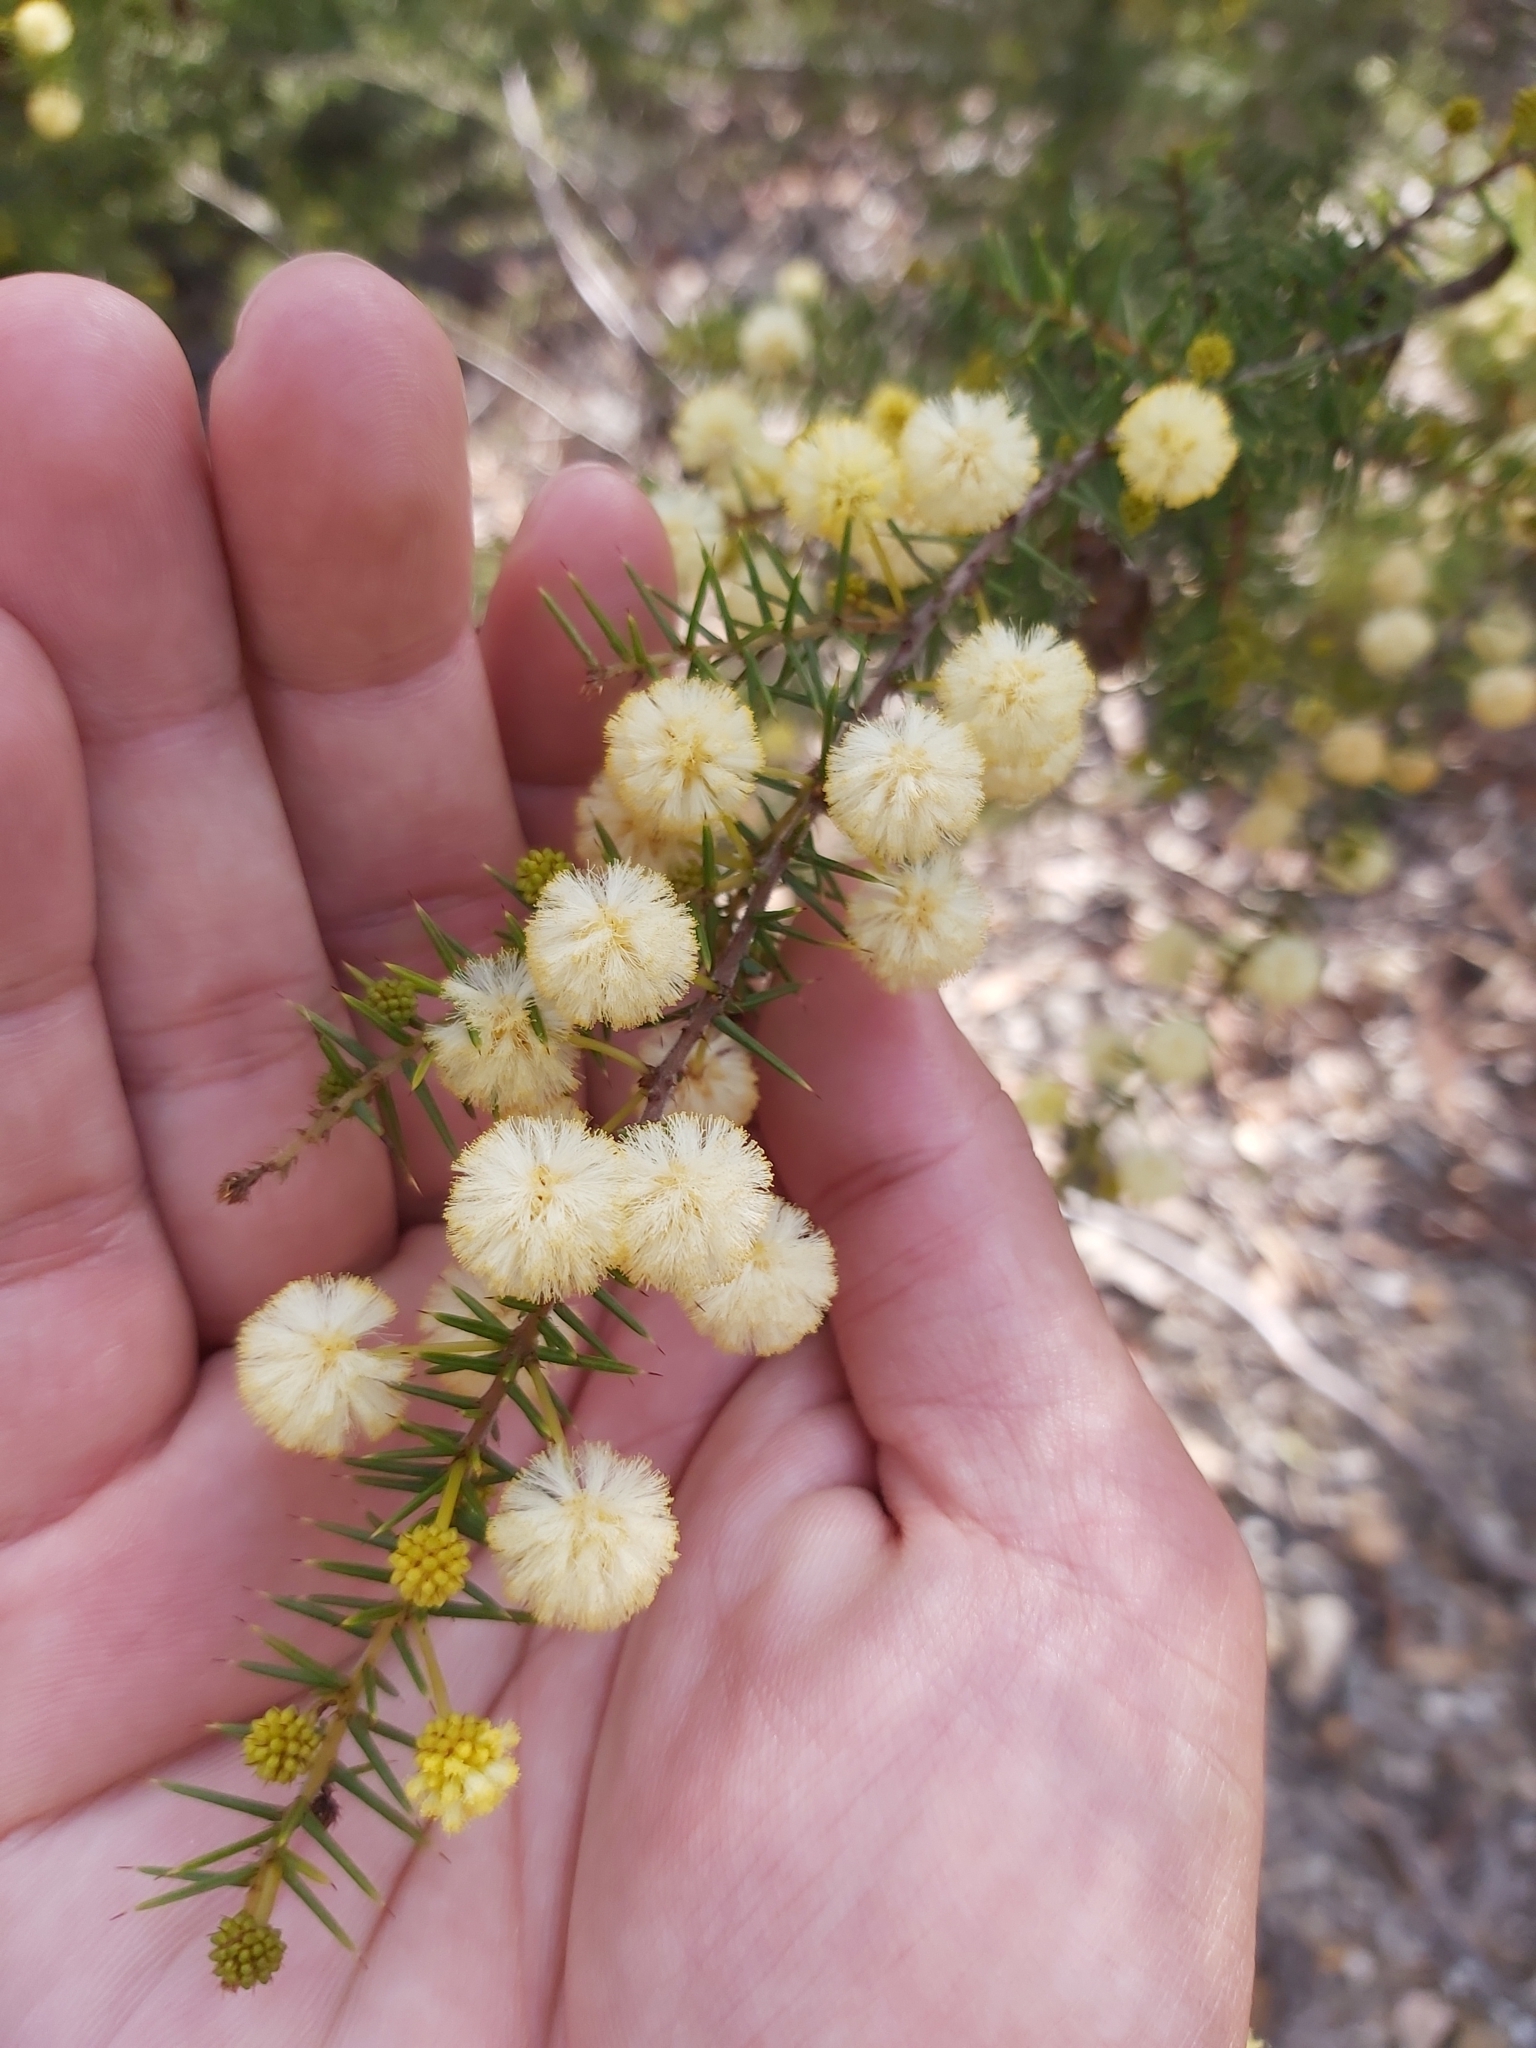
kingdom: Plantae
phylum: Tracheophyta
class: Magnoliopsida
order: Fabales
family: Fabaceae
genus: Acacia
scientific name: Acacia ulicifolia
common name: Juniper wattle
